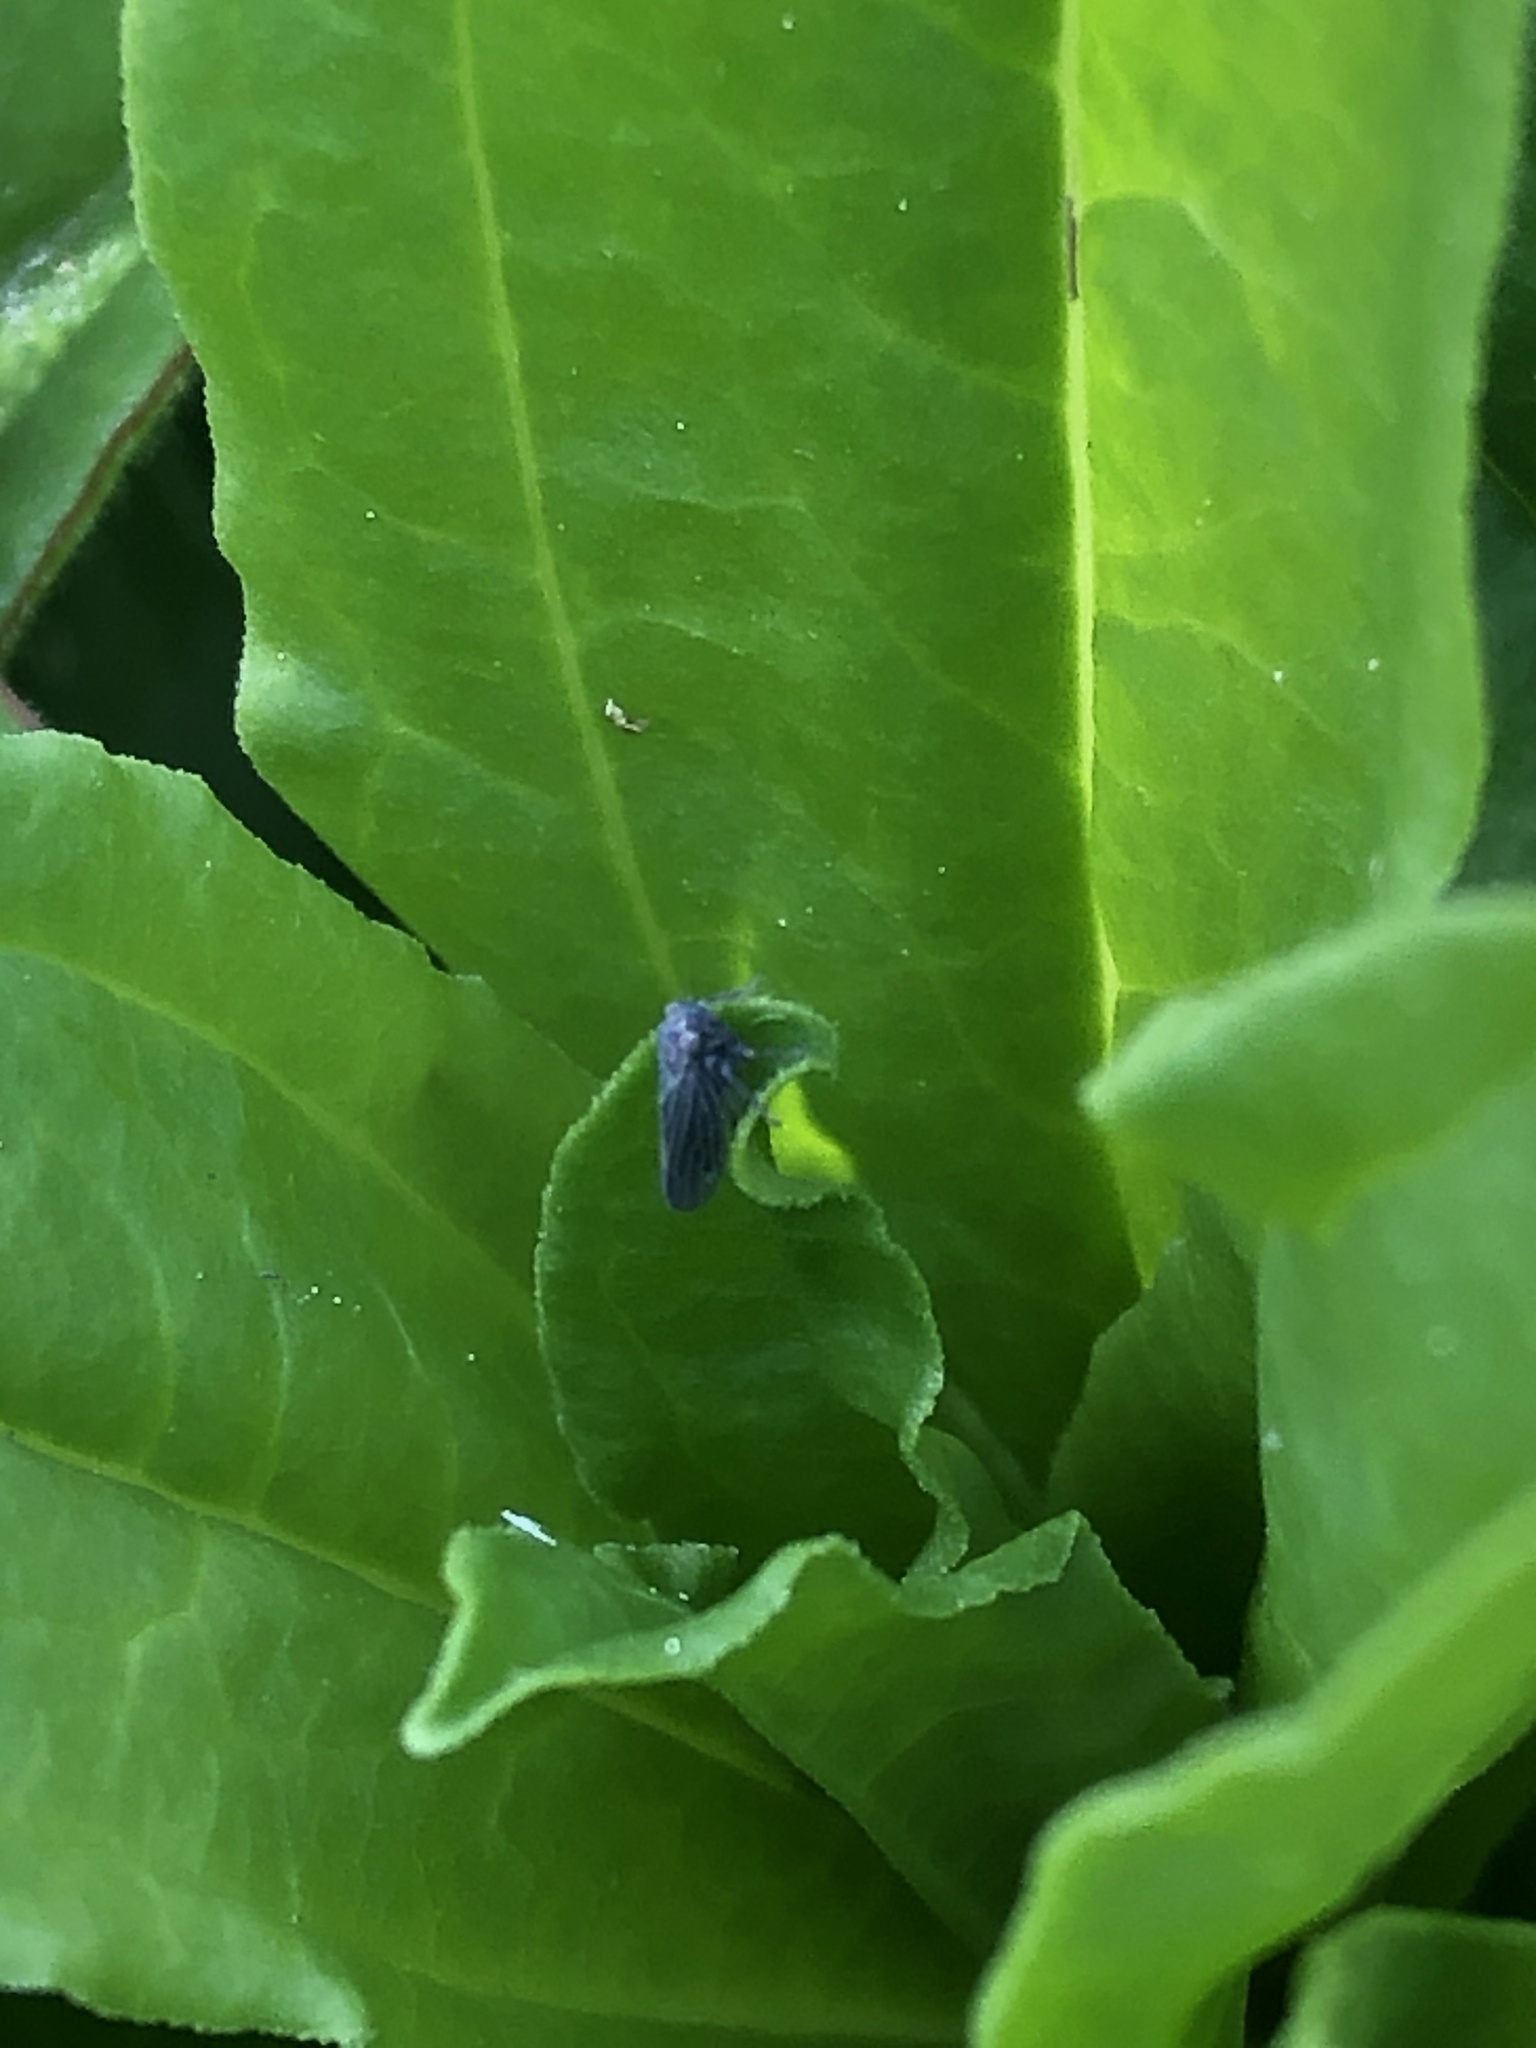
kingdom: Animalia
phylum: Arthropoda
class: Insecta
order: Hemiptera
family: Cicadellidae
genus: Agallia
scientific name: Agallia constricta
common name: The constricted leafhopper
